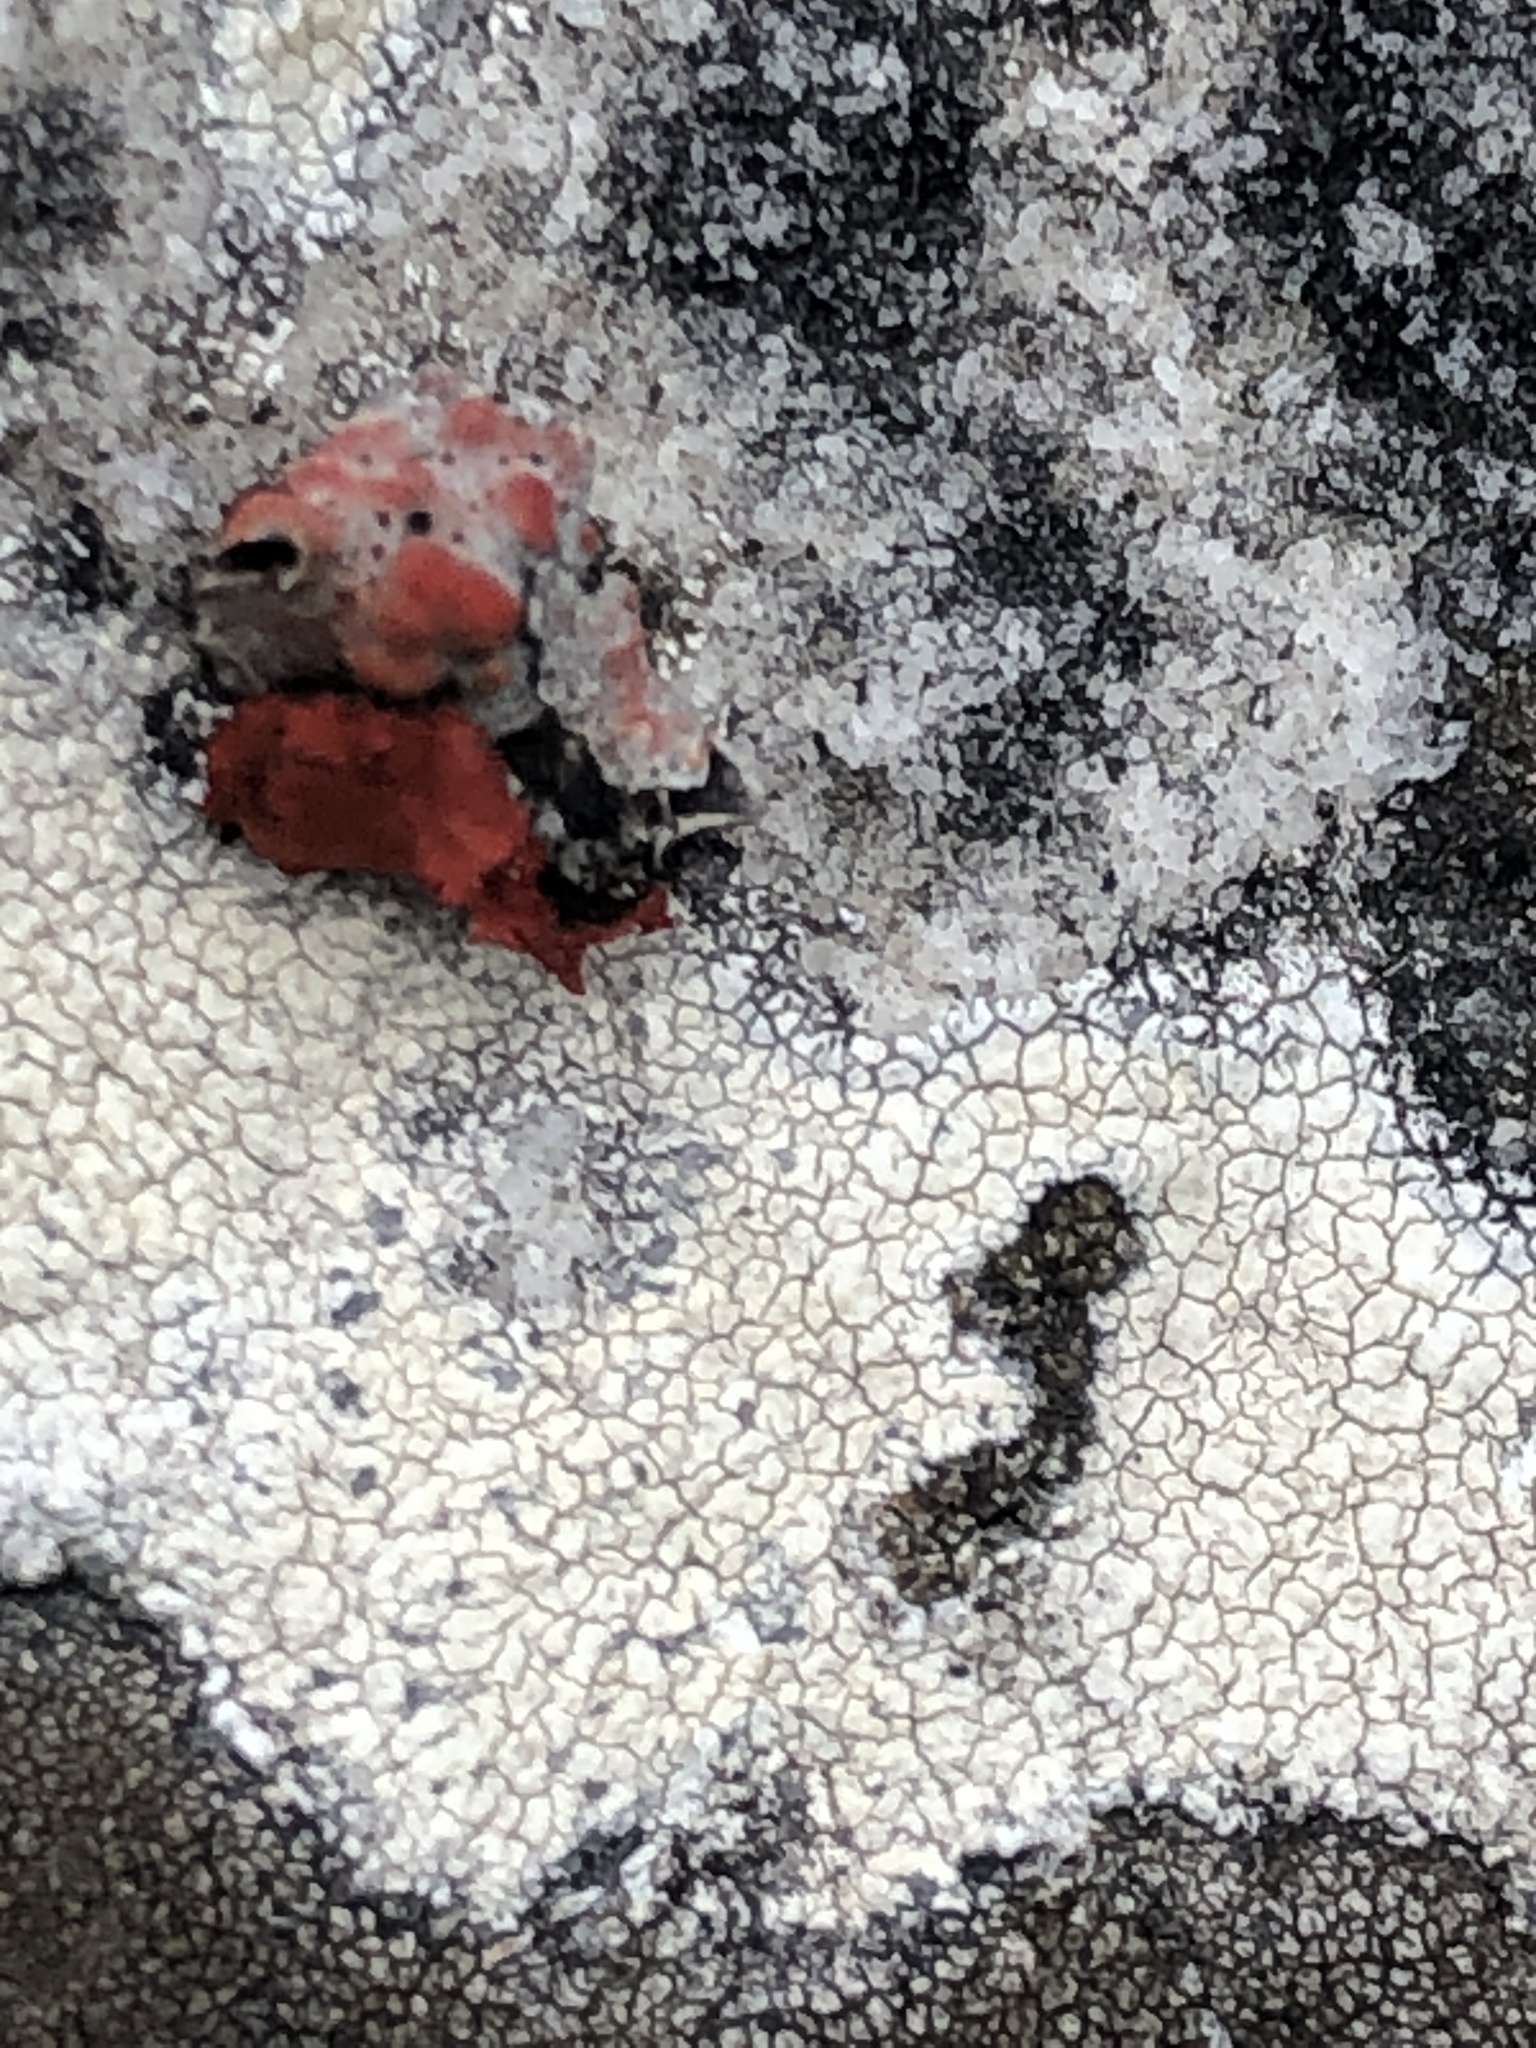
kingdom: Fungi
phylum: Ascomycota
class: Lecanoromycetes
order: Umbilicariales
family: Umbilicariaceae
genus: Lasallia
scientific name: Lasallia rubiginosa
